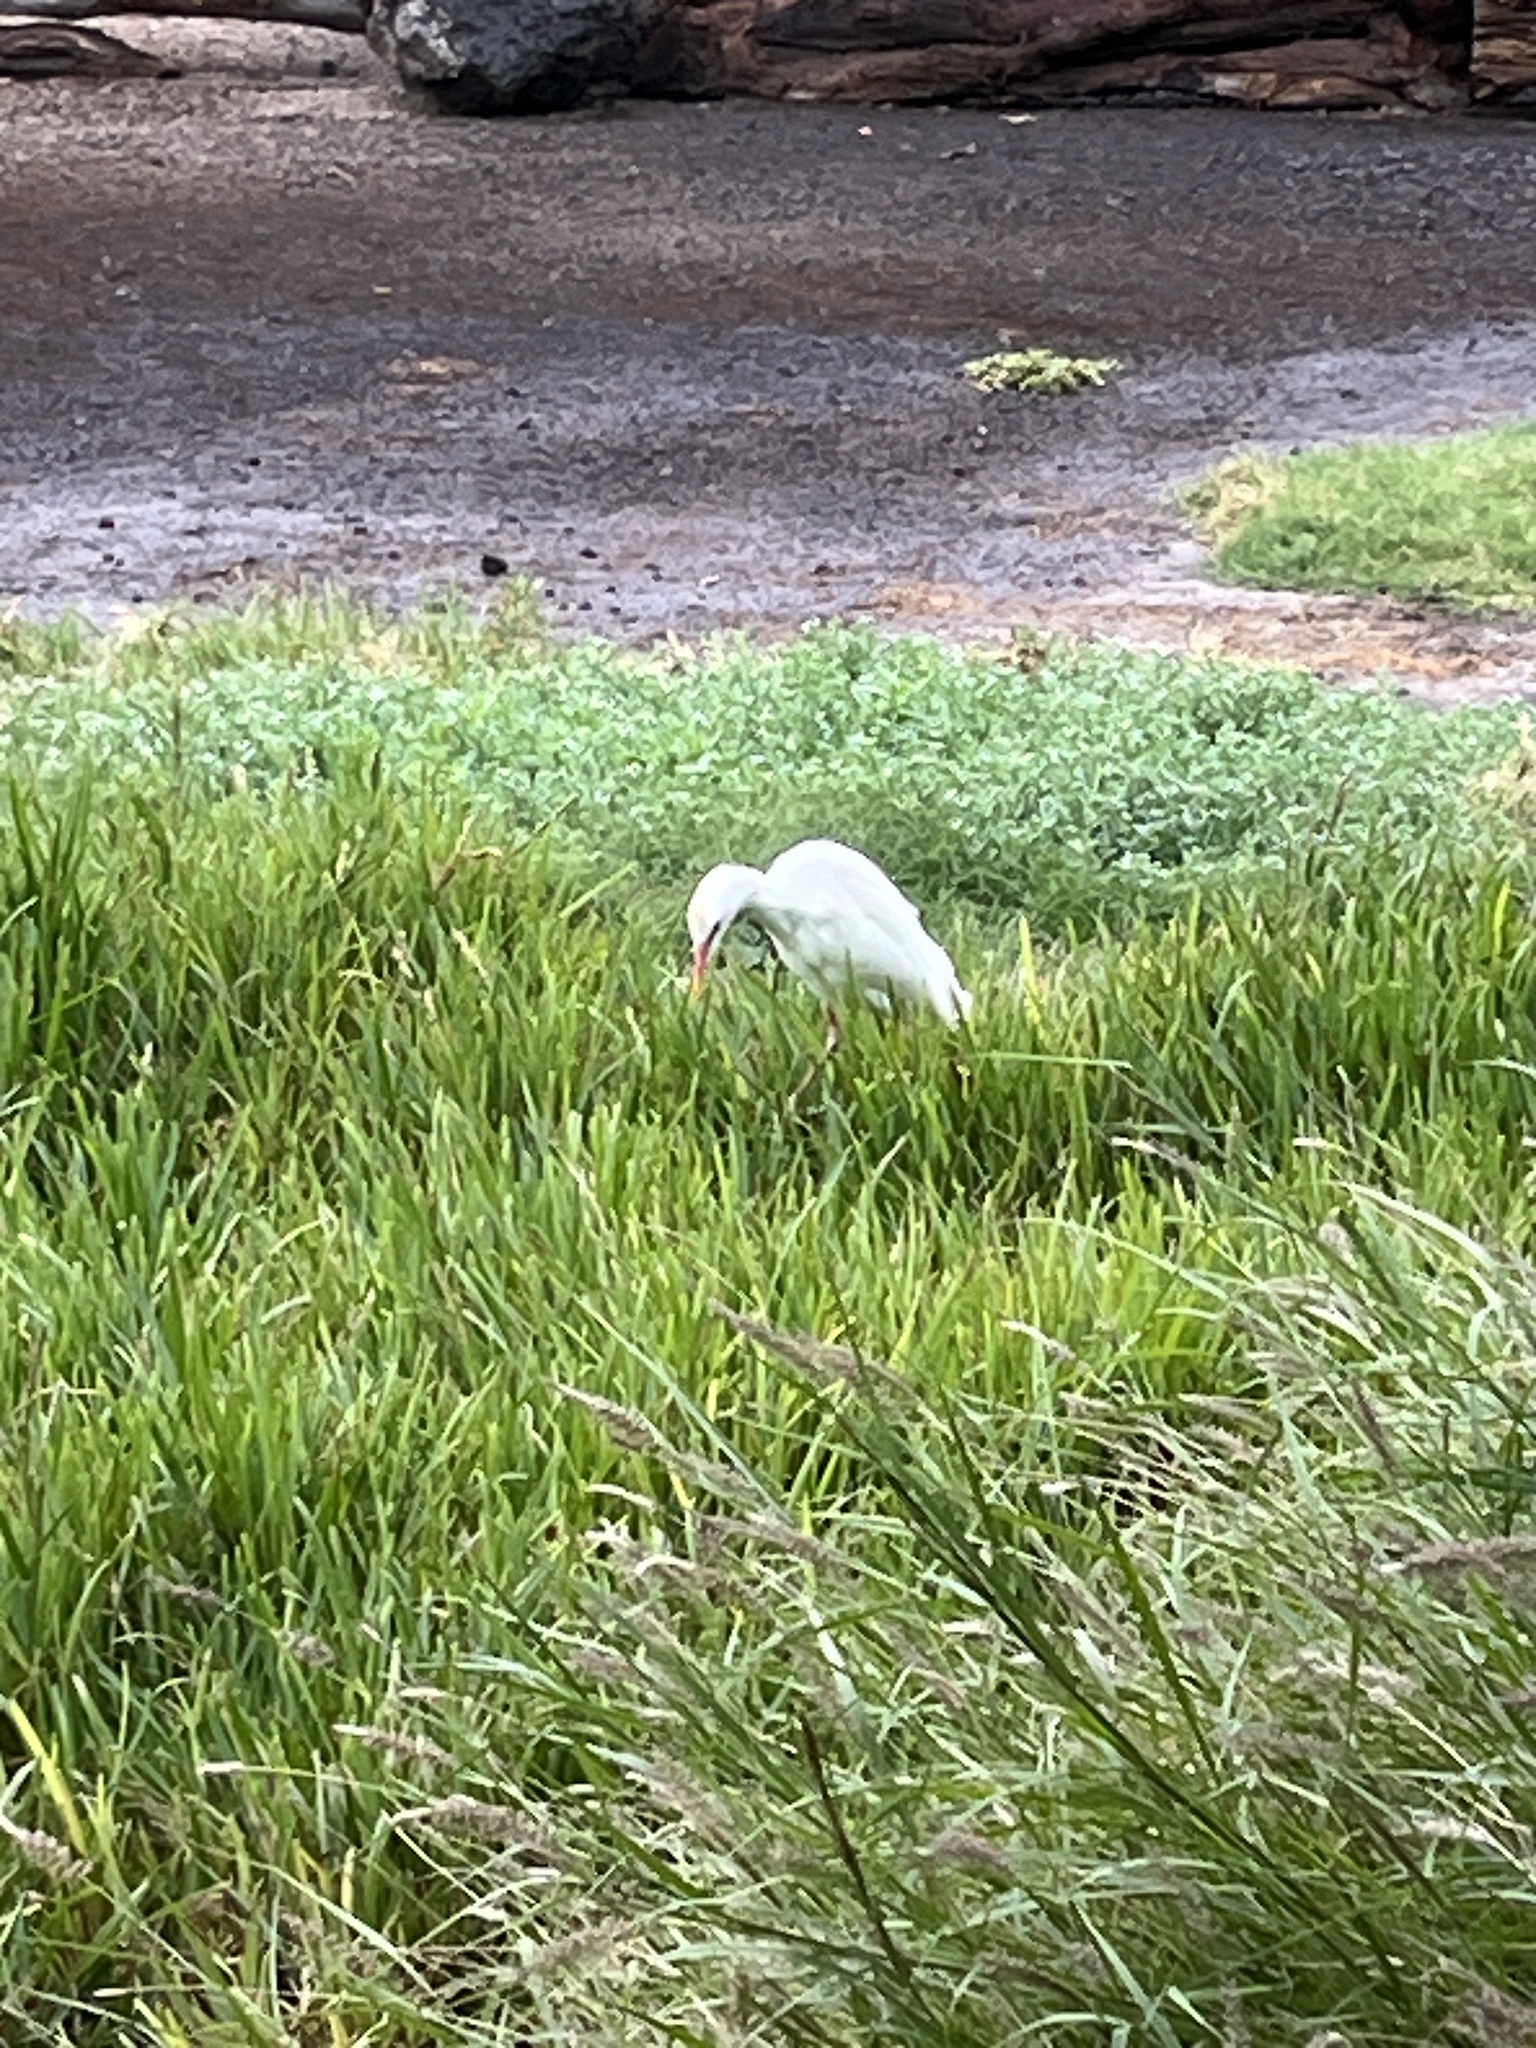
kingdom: Animalia
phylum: Chordata
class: Aves
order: Pelecaniformes
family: Ardeidae
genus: Bubulcus
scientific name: Bubulcus ibis
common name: Cattle egret
